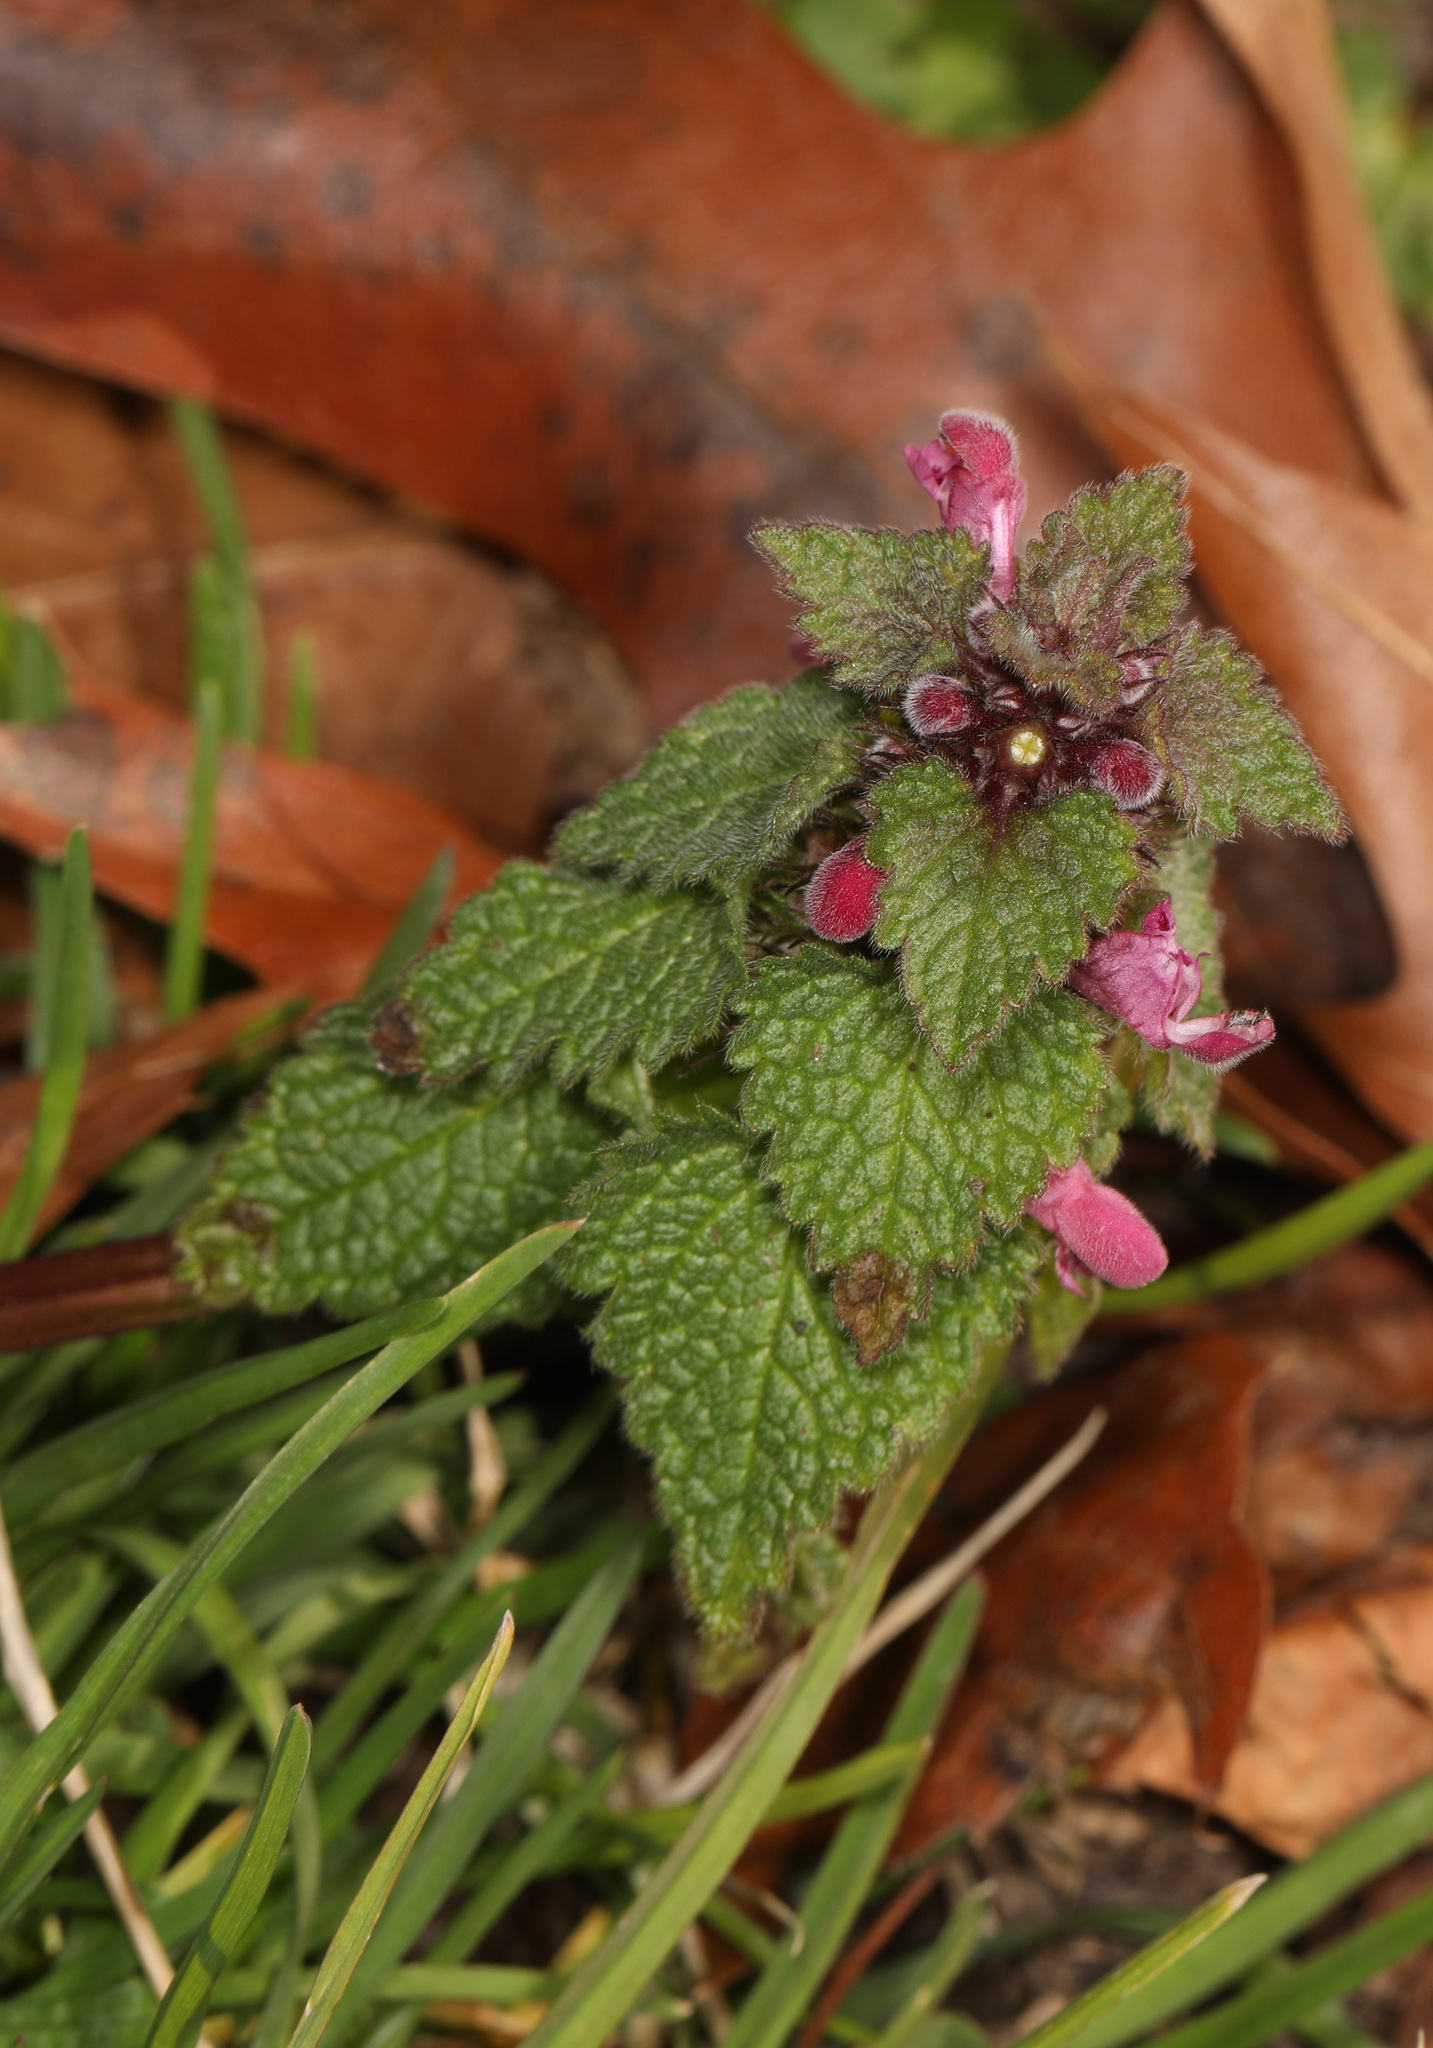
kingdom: Plantae
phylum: Tracheophyta
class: Magnoliopsida
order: Lamiales
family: Lamiaceae
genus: Lamium
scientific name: Lamium purpureum
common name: Red dead-nettle
